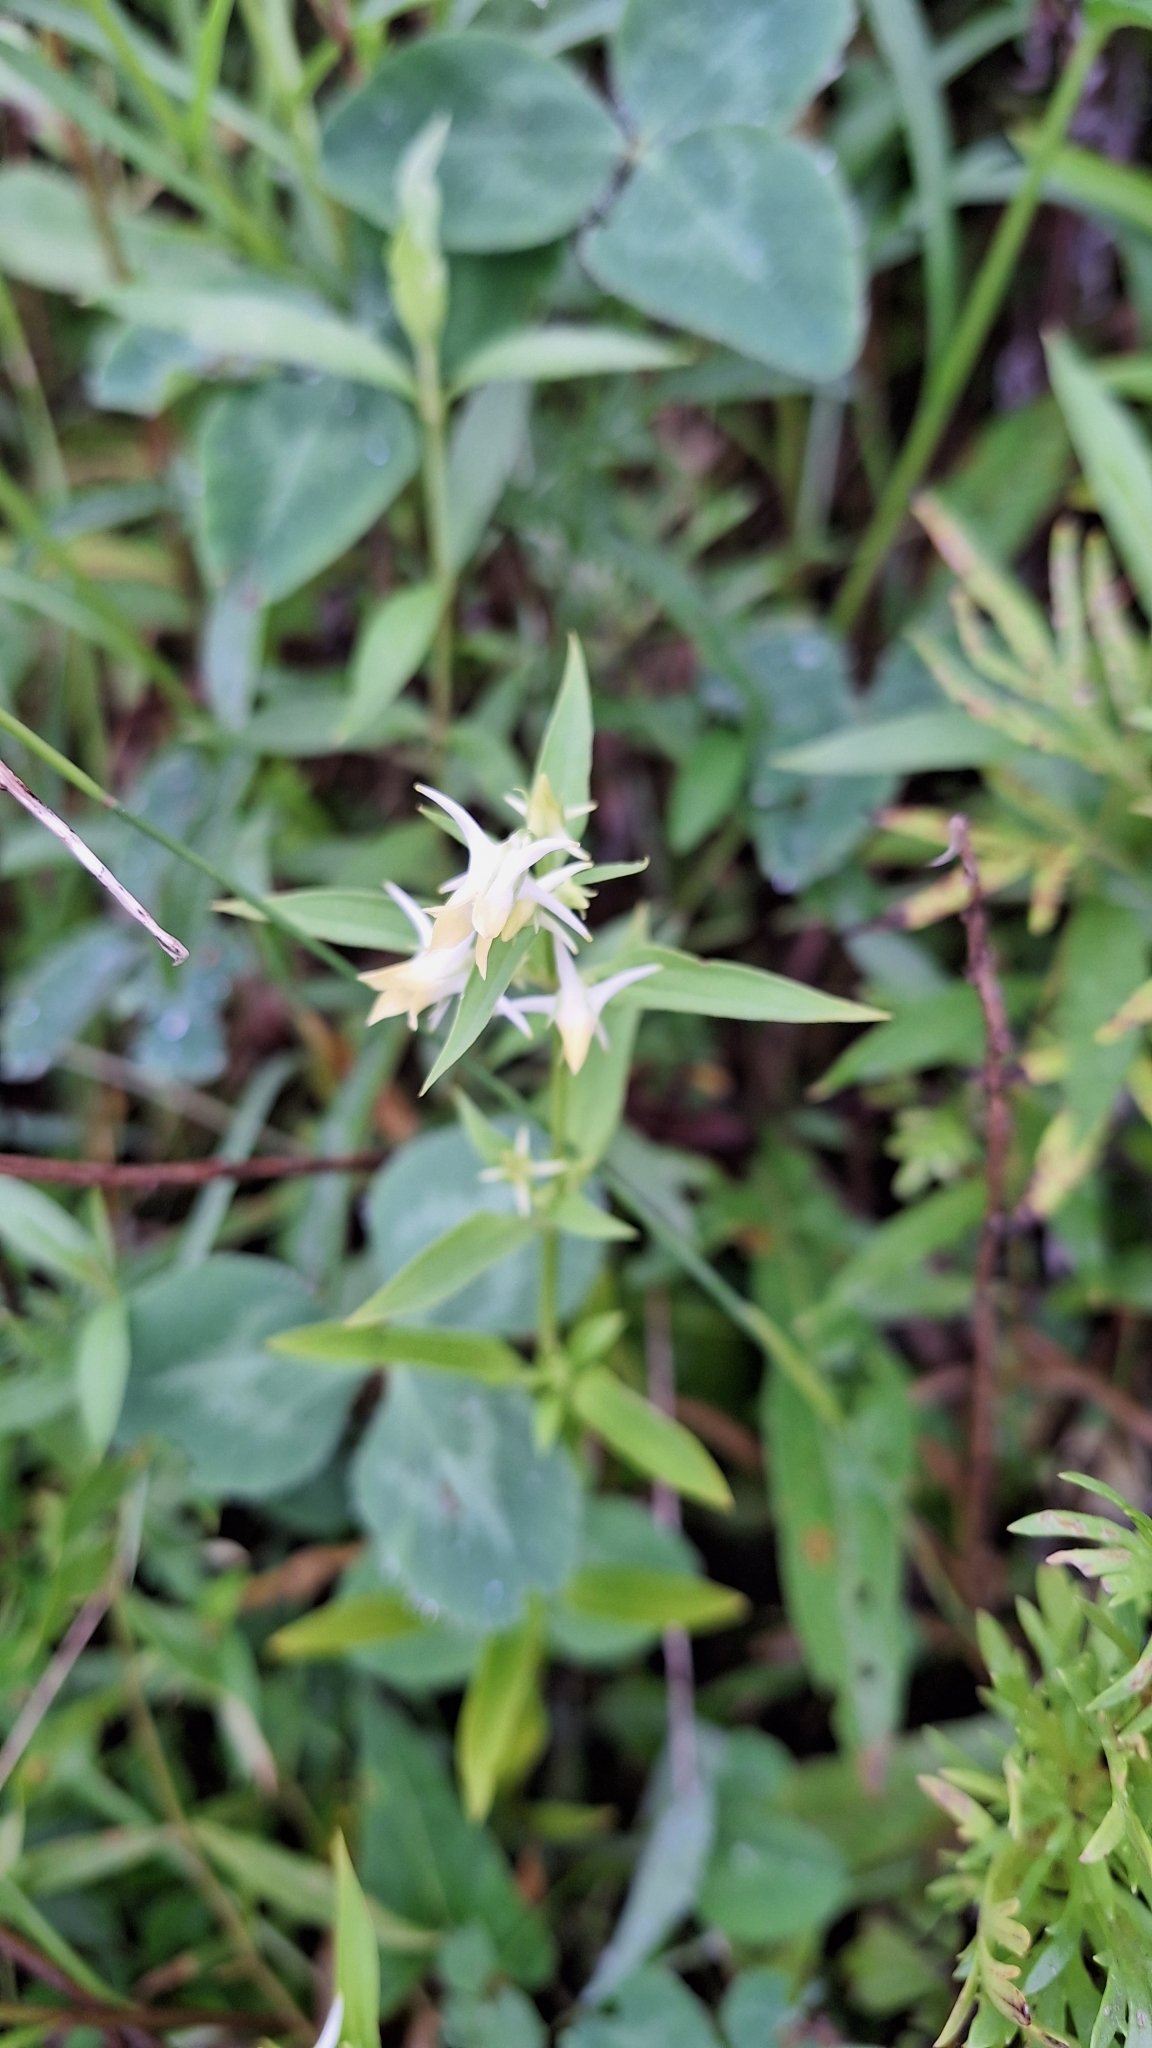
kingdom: Plantae
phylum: Tracheophyta
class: Magnoliopsida
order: Gentianales
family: Gentianaceae
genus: Halenia
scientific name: Halenia corniculata
